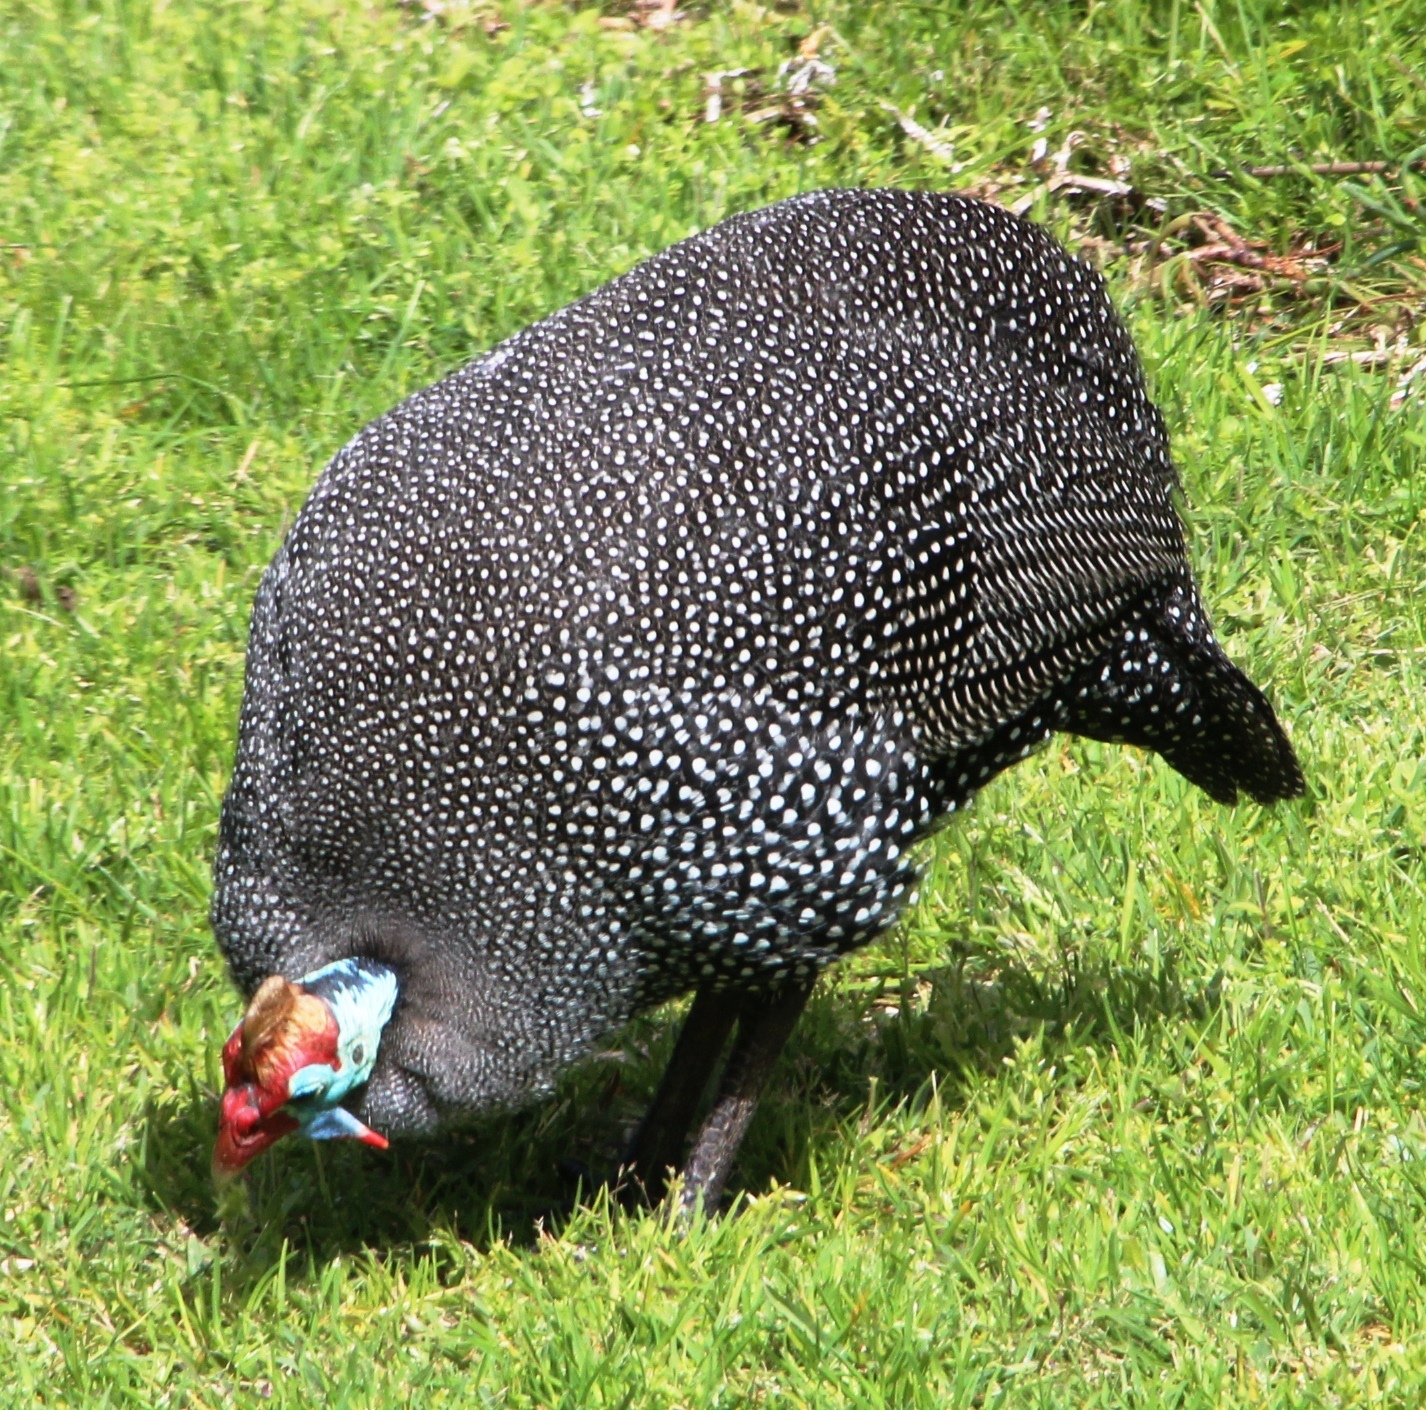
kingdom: Animalia
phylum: Chordata
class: Aves
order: Galliformes
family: Numididae
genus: Numida
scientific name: Numida meleagris
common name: Helmeted guineafowl
